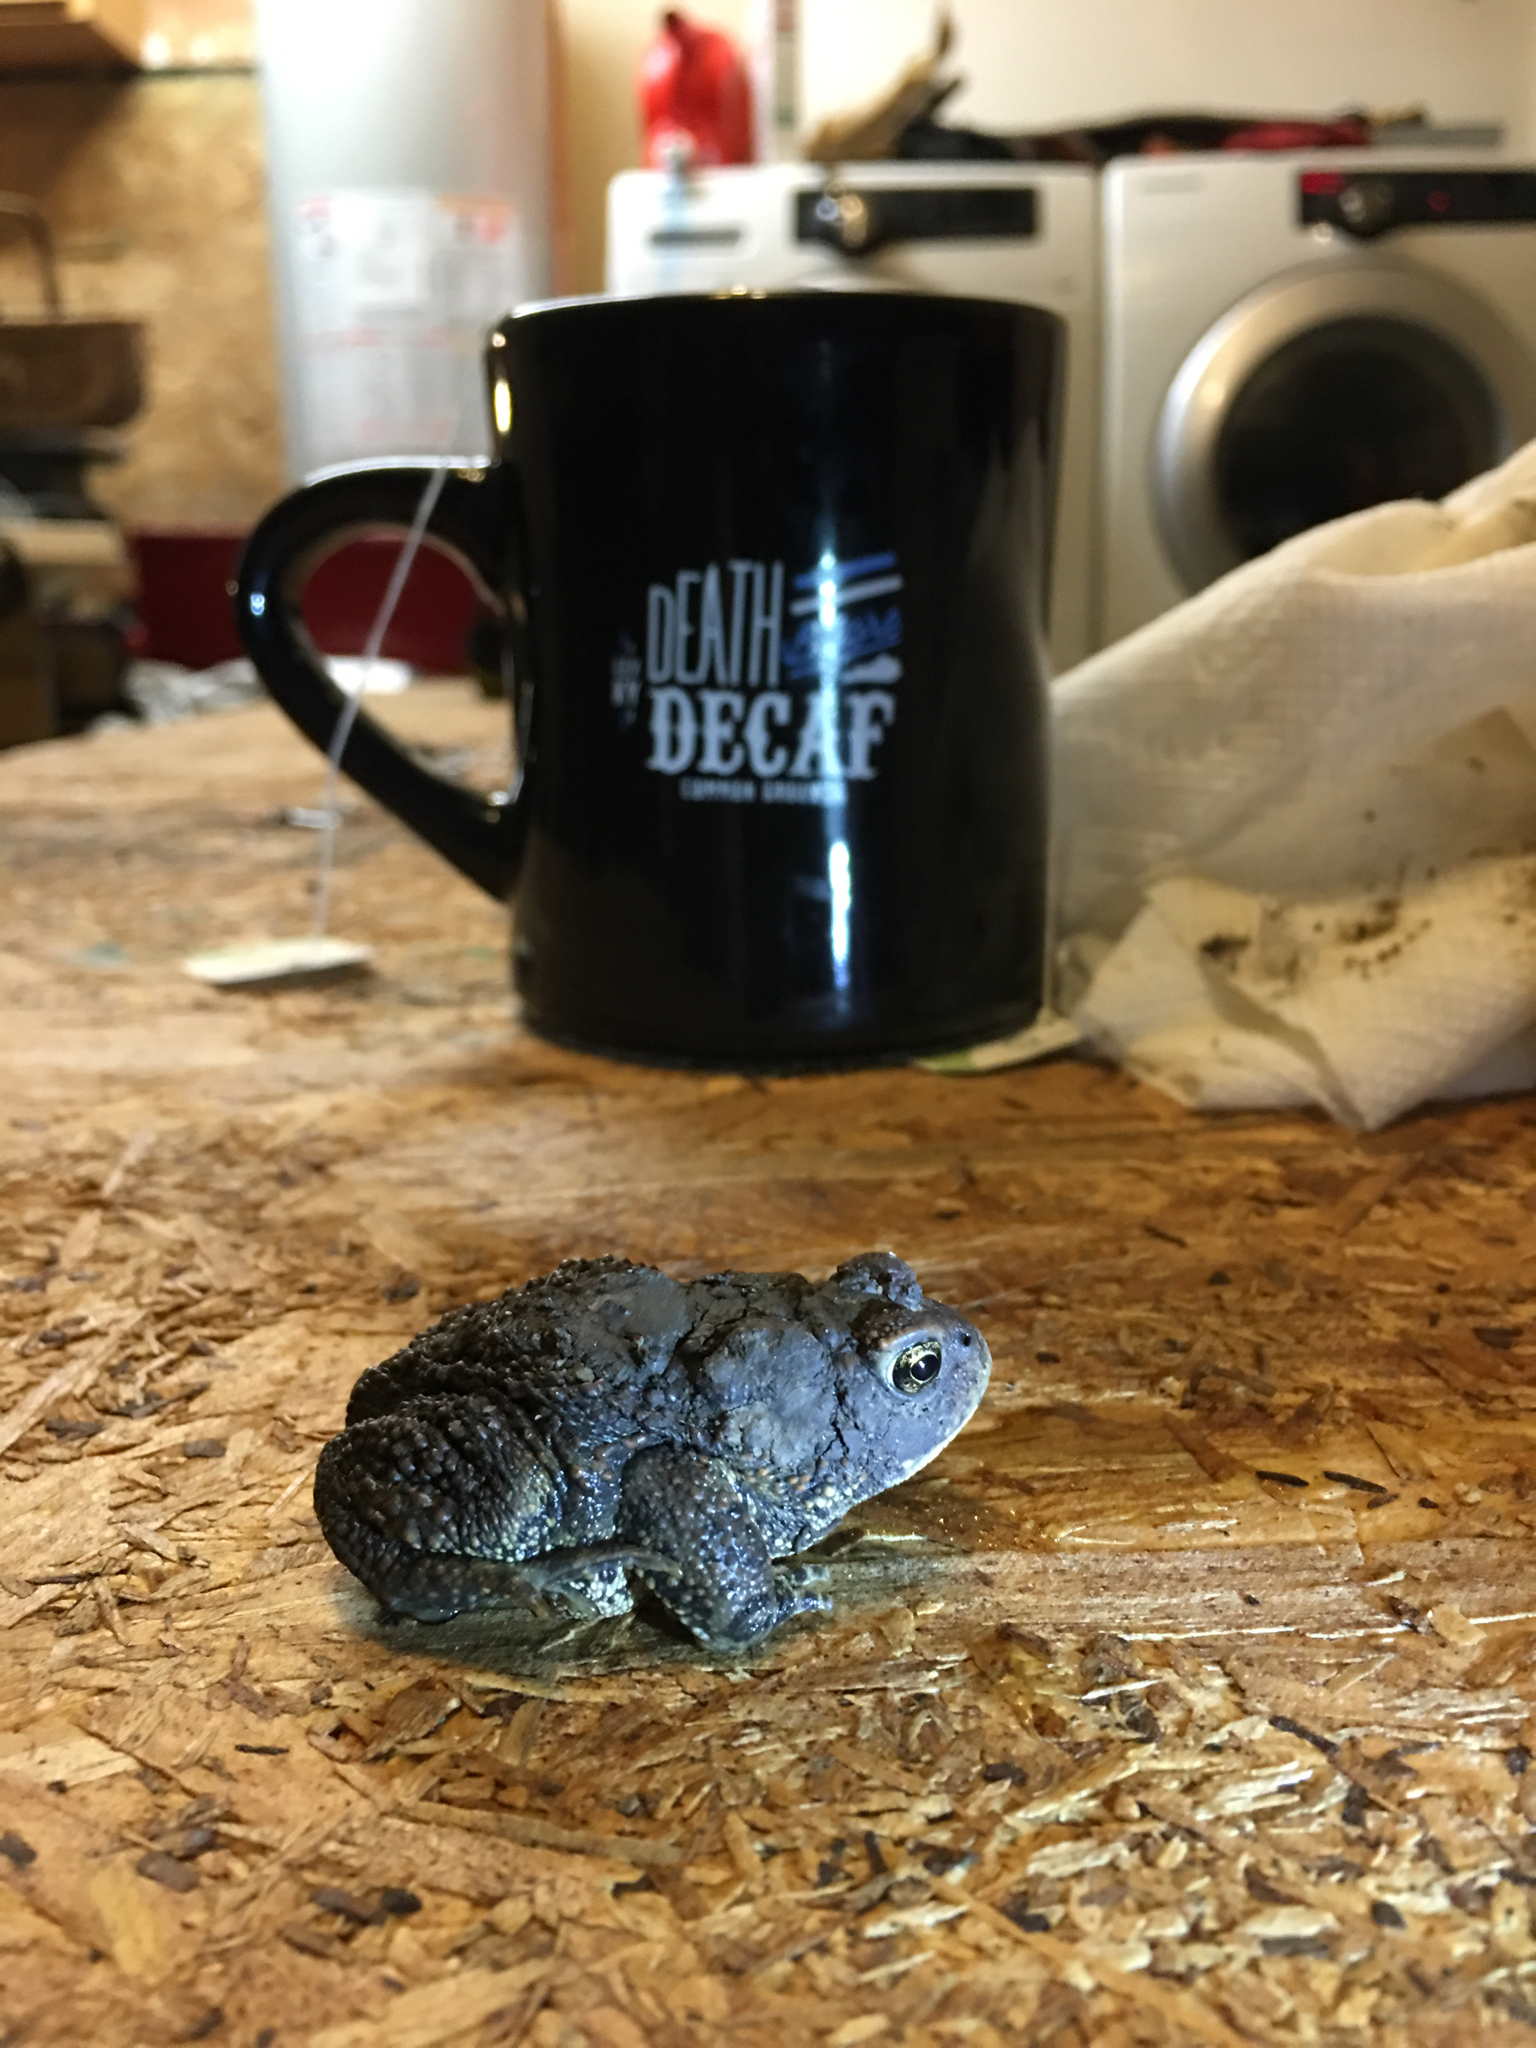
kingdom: Animalia
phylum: Chordata
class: Amphibia
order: Anura
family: Bufonidae
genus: Anaxyrus
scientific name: Anaxyrus americanus
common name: American toad
